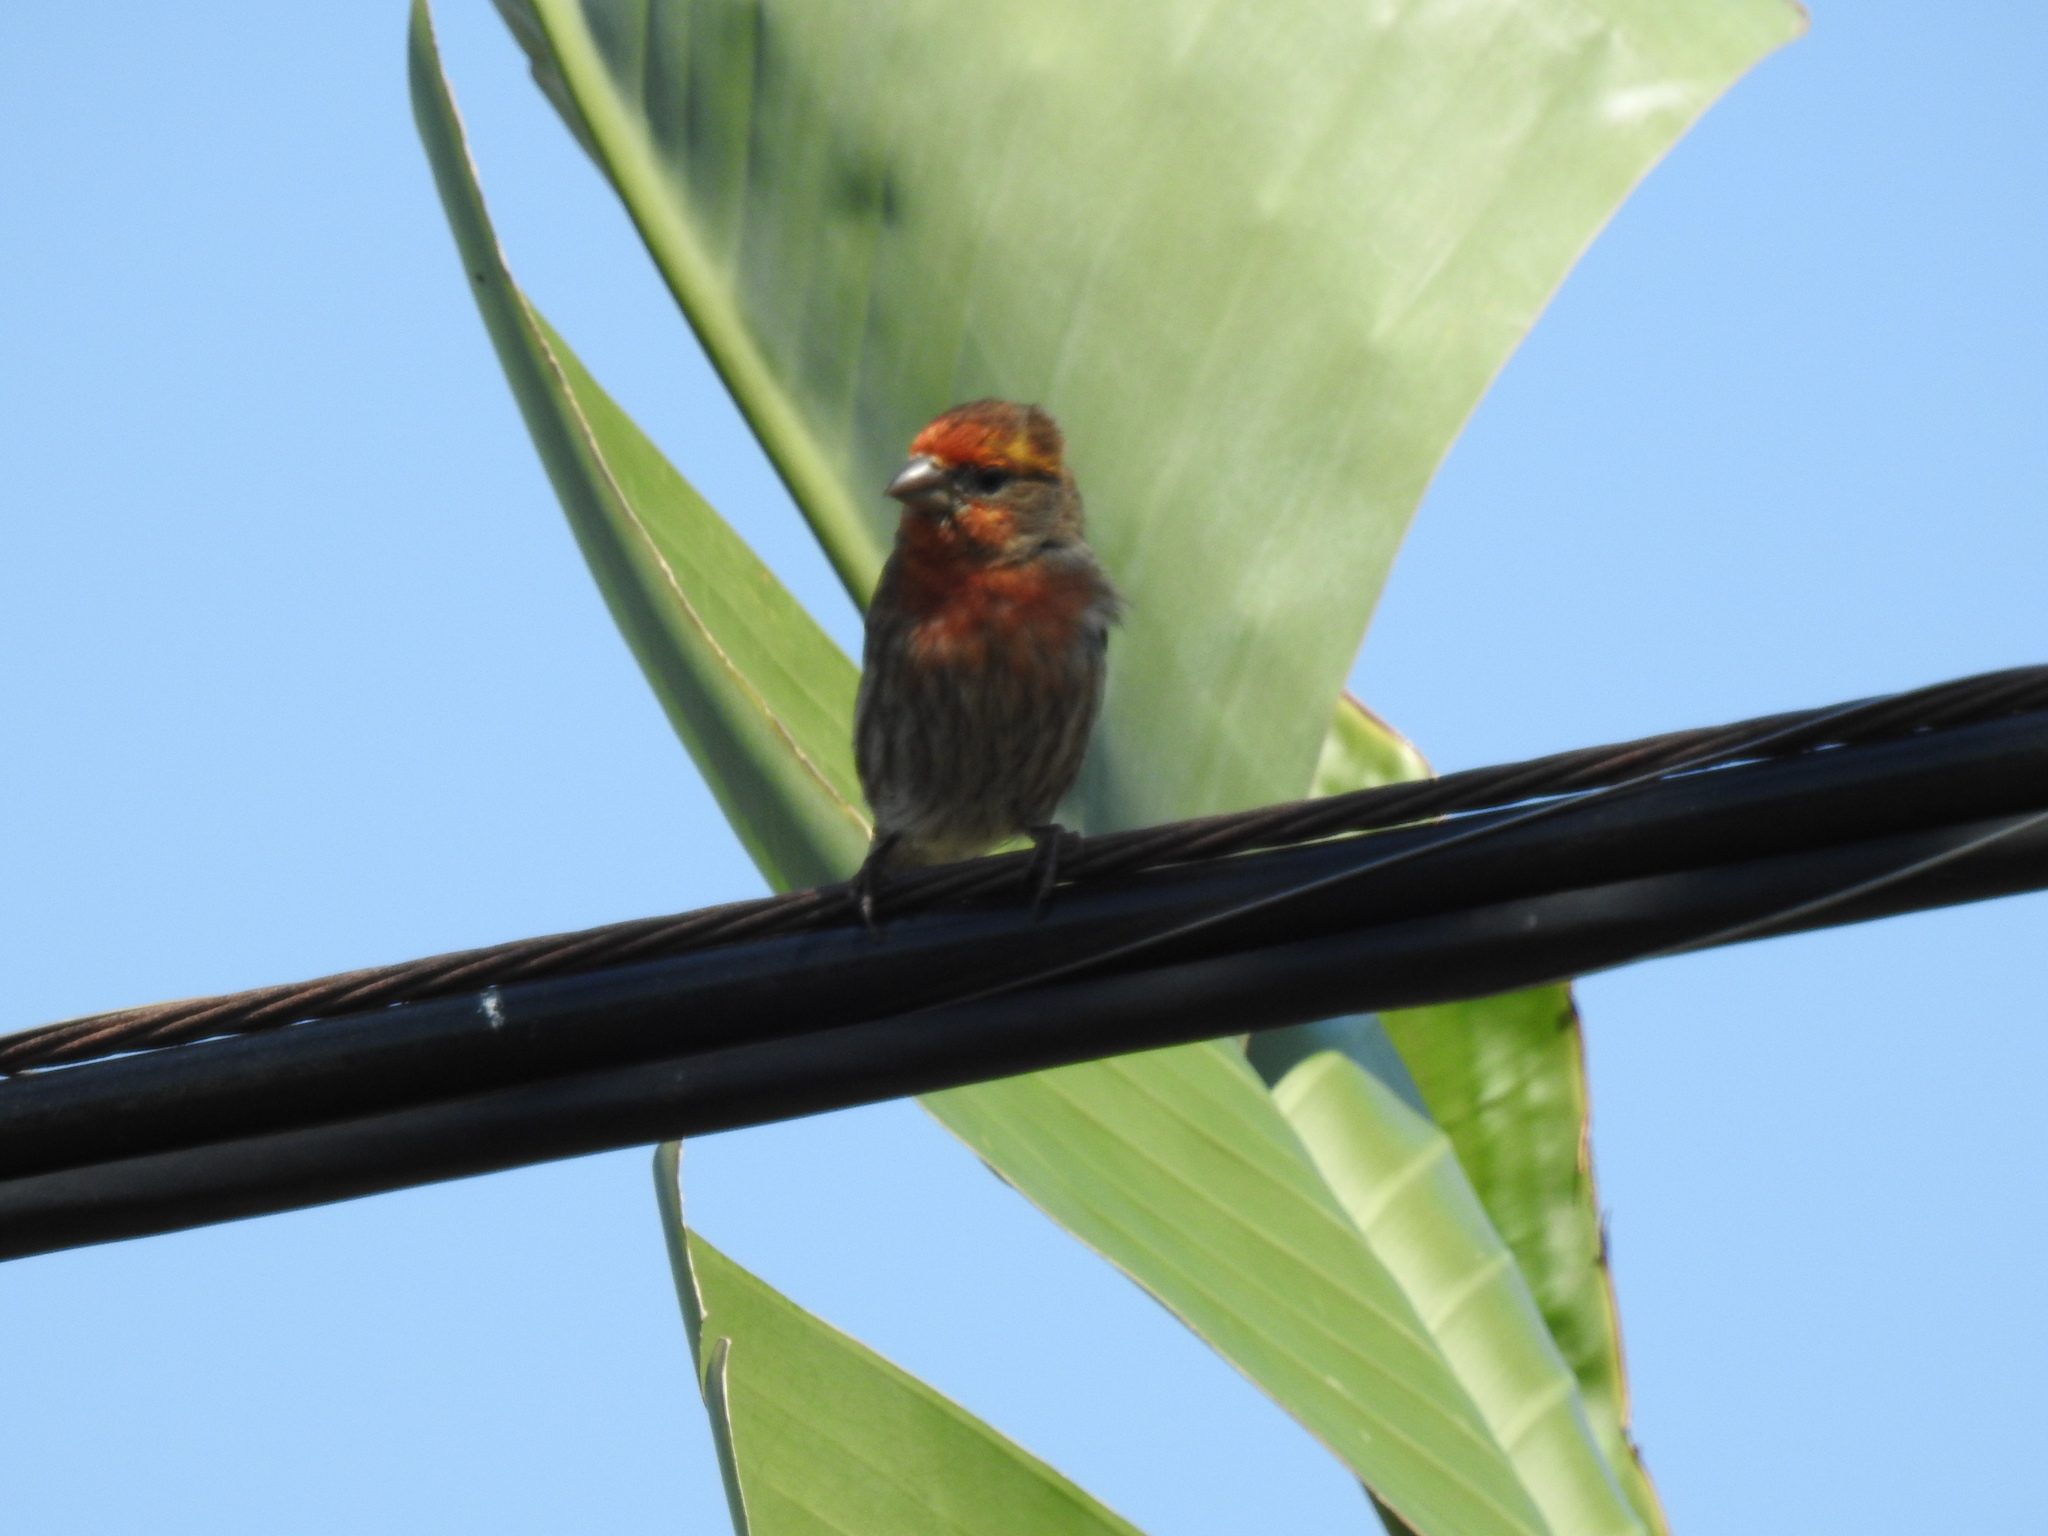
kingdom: Animalia
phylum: Chordata
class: Aves
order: Passeriformes
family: Fringillidae
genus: Haemorhous
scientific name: Haemorhous mexicanus
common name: House finch
